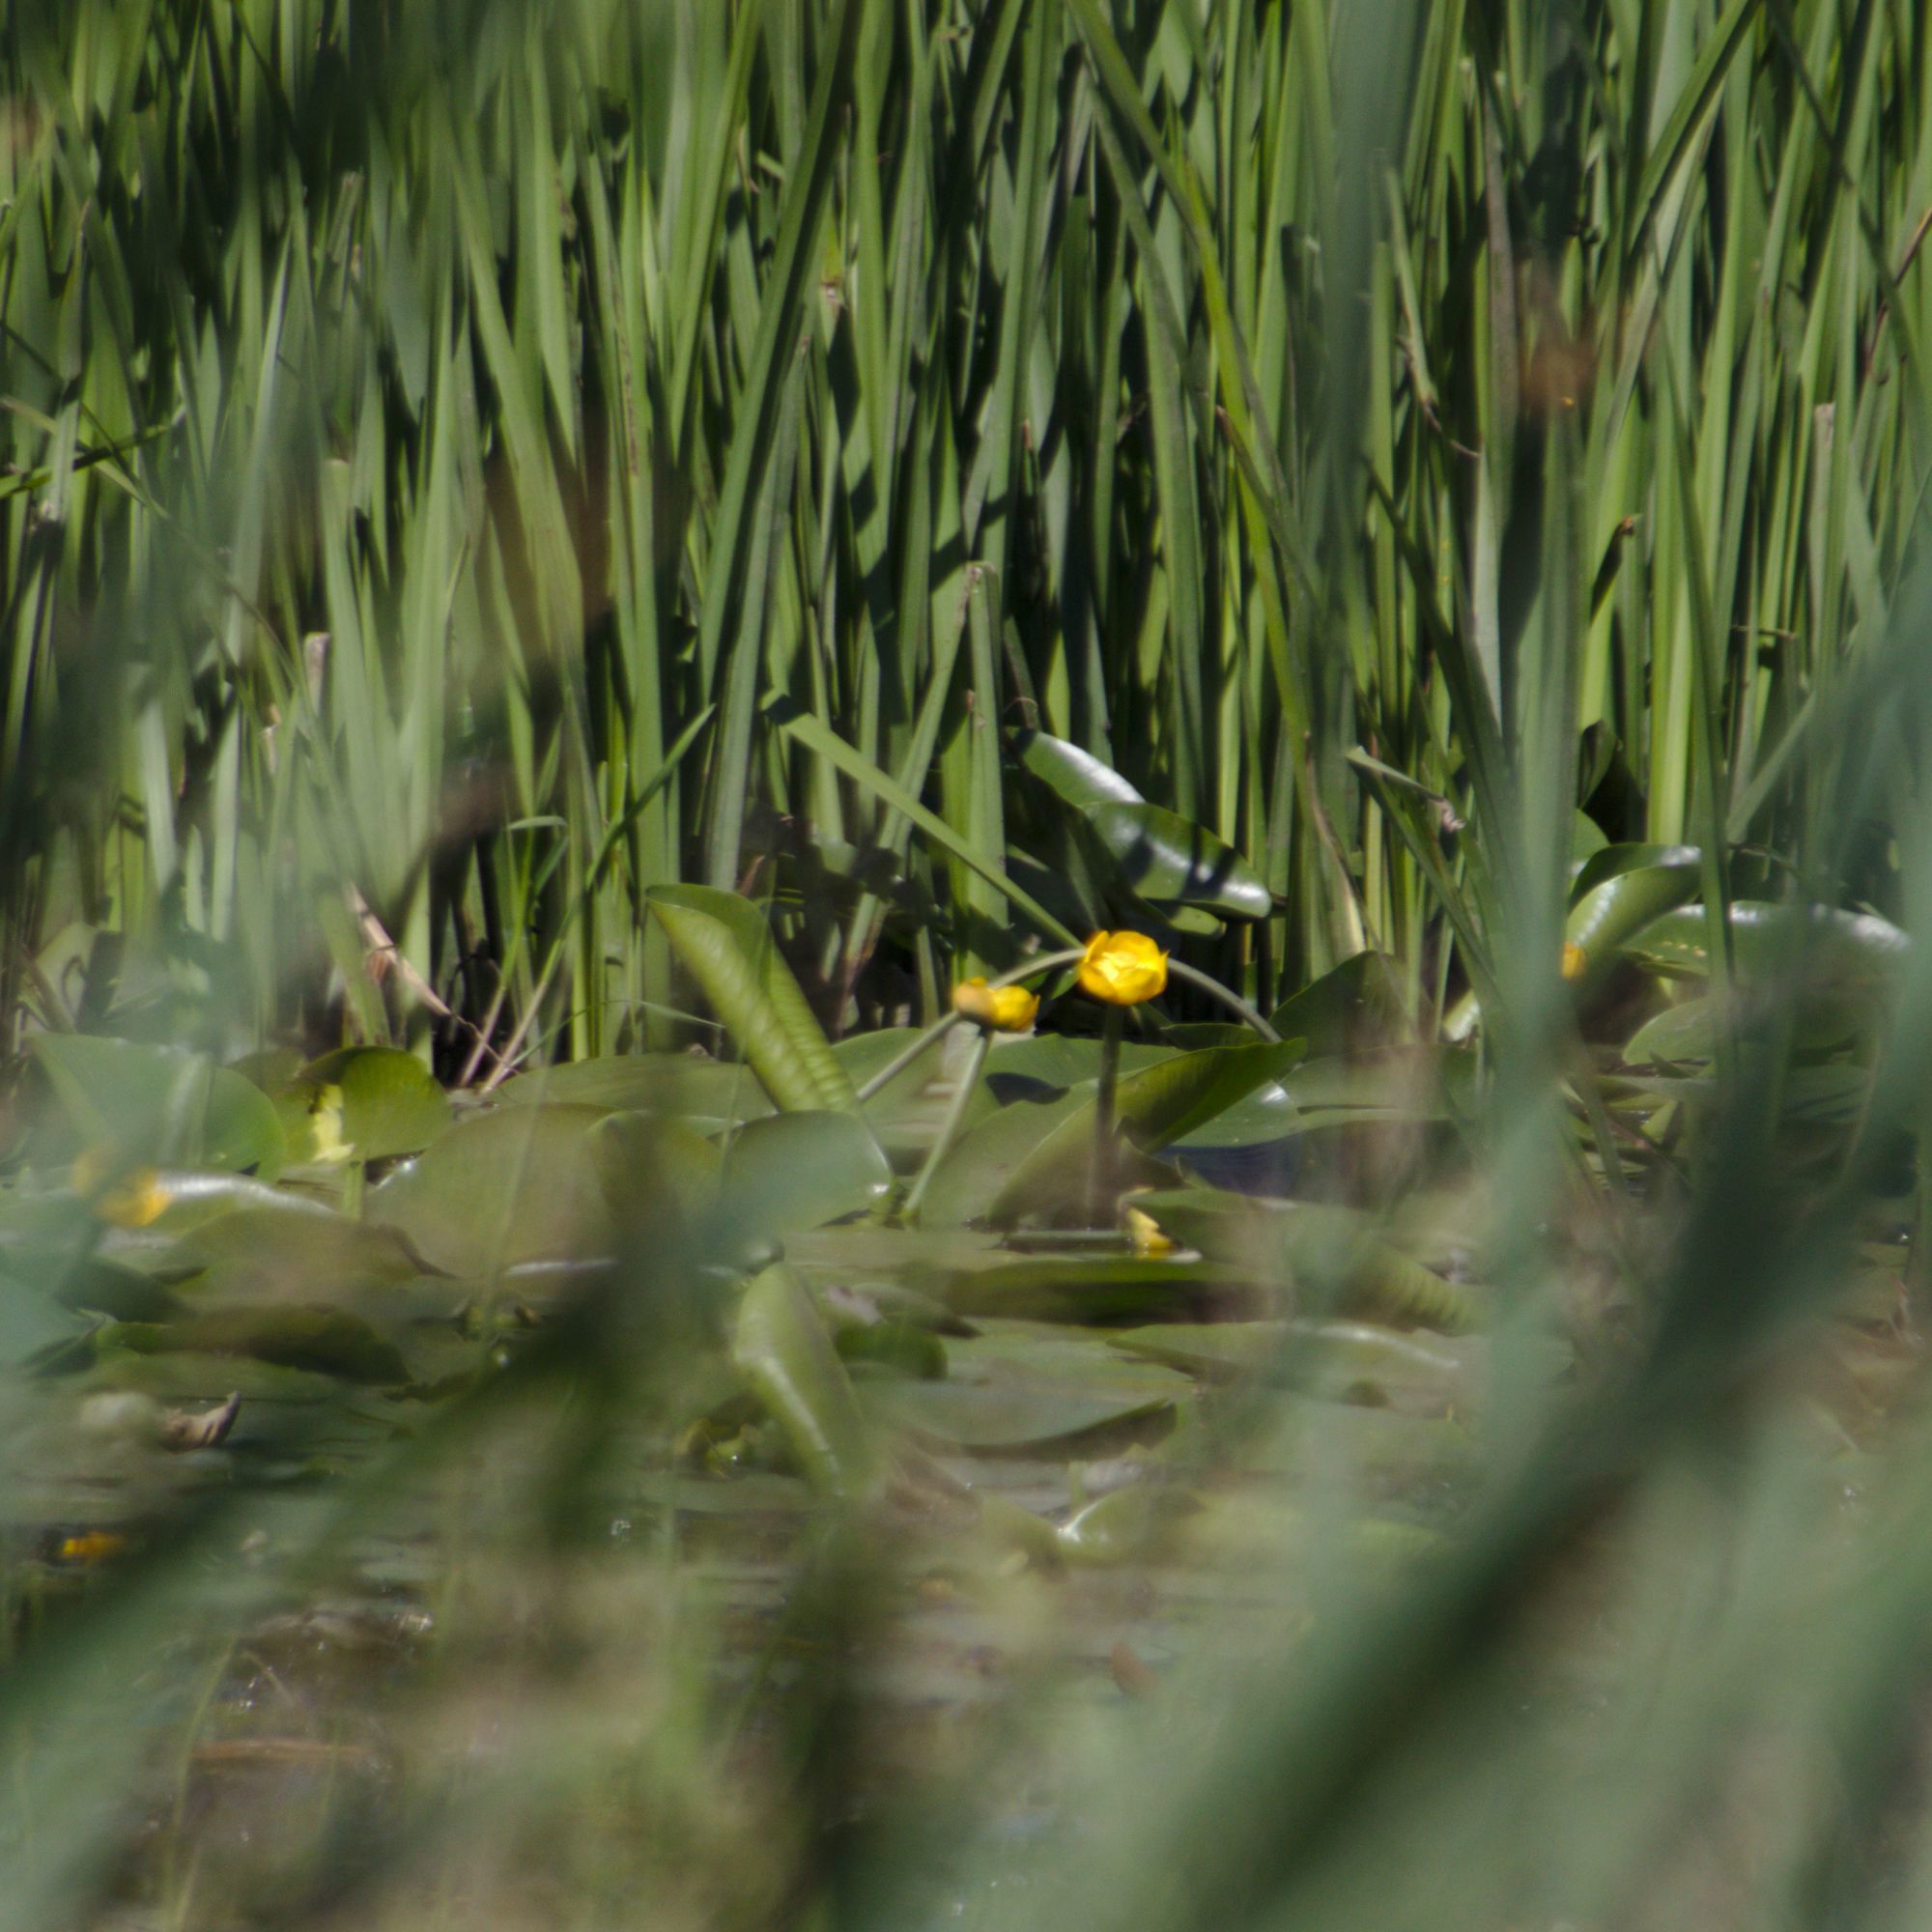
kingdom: Plantae
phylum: Tracheophyta
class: Magnoliopsida
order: Nymphaeales
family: Nymphaeaceae
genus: Nuphar
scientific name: Nuphar lutea
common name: Yellow water-lily
